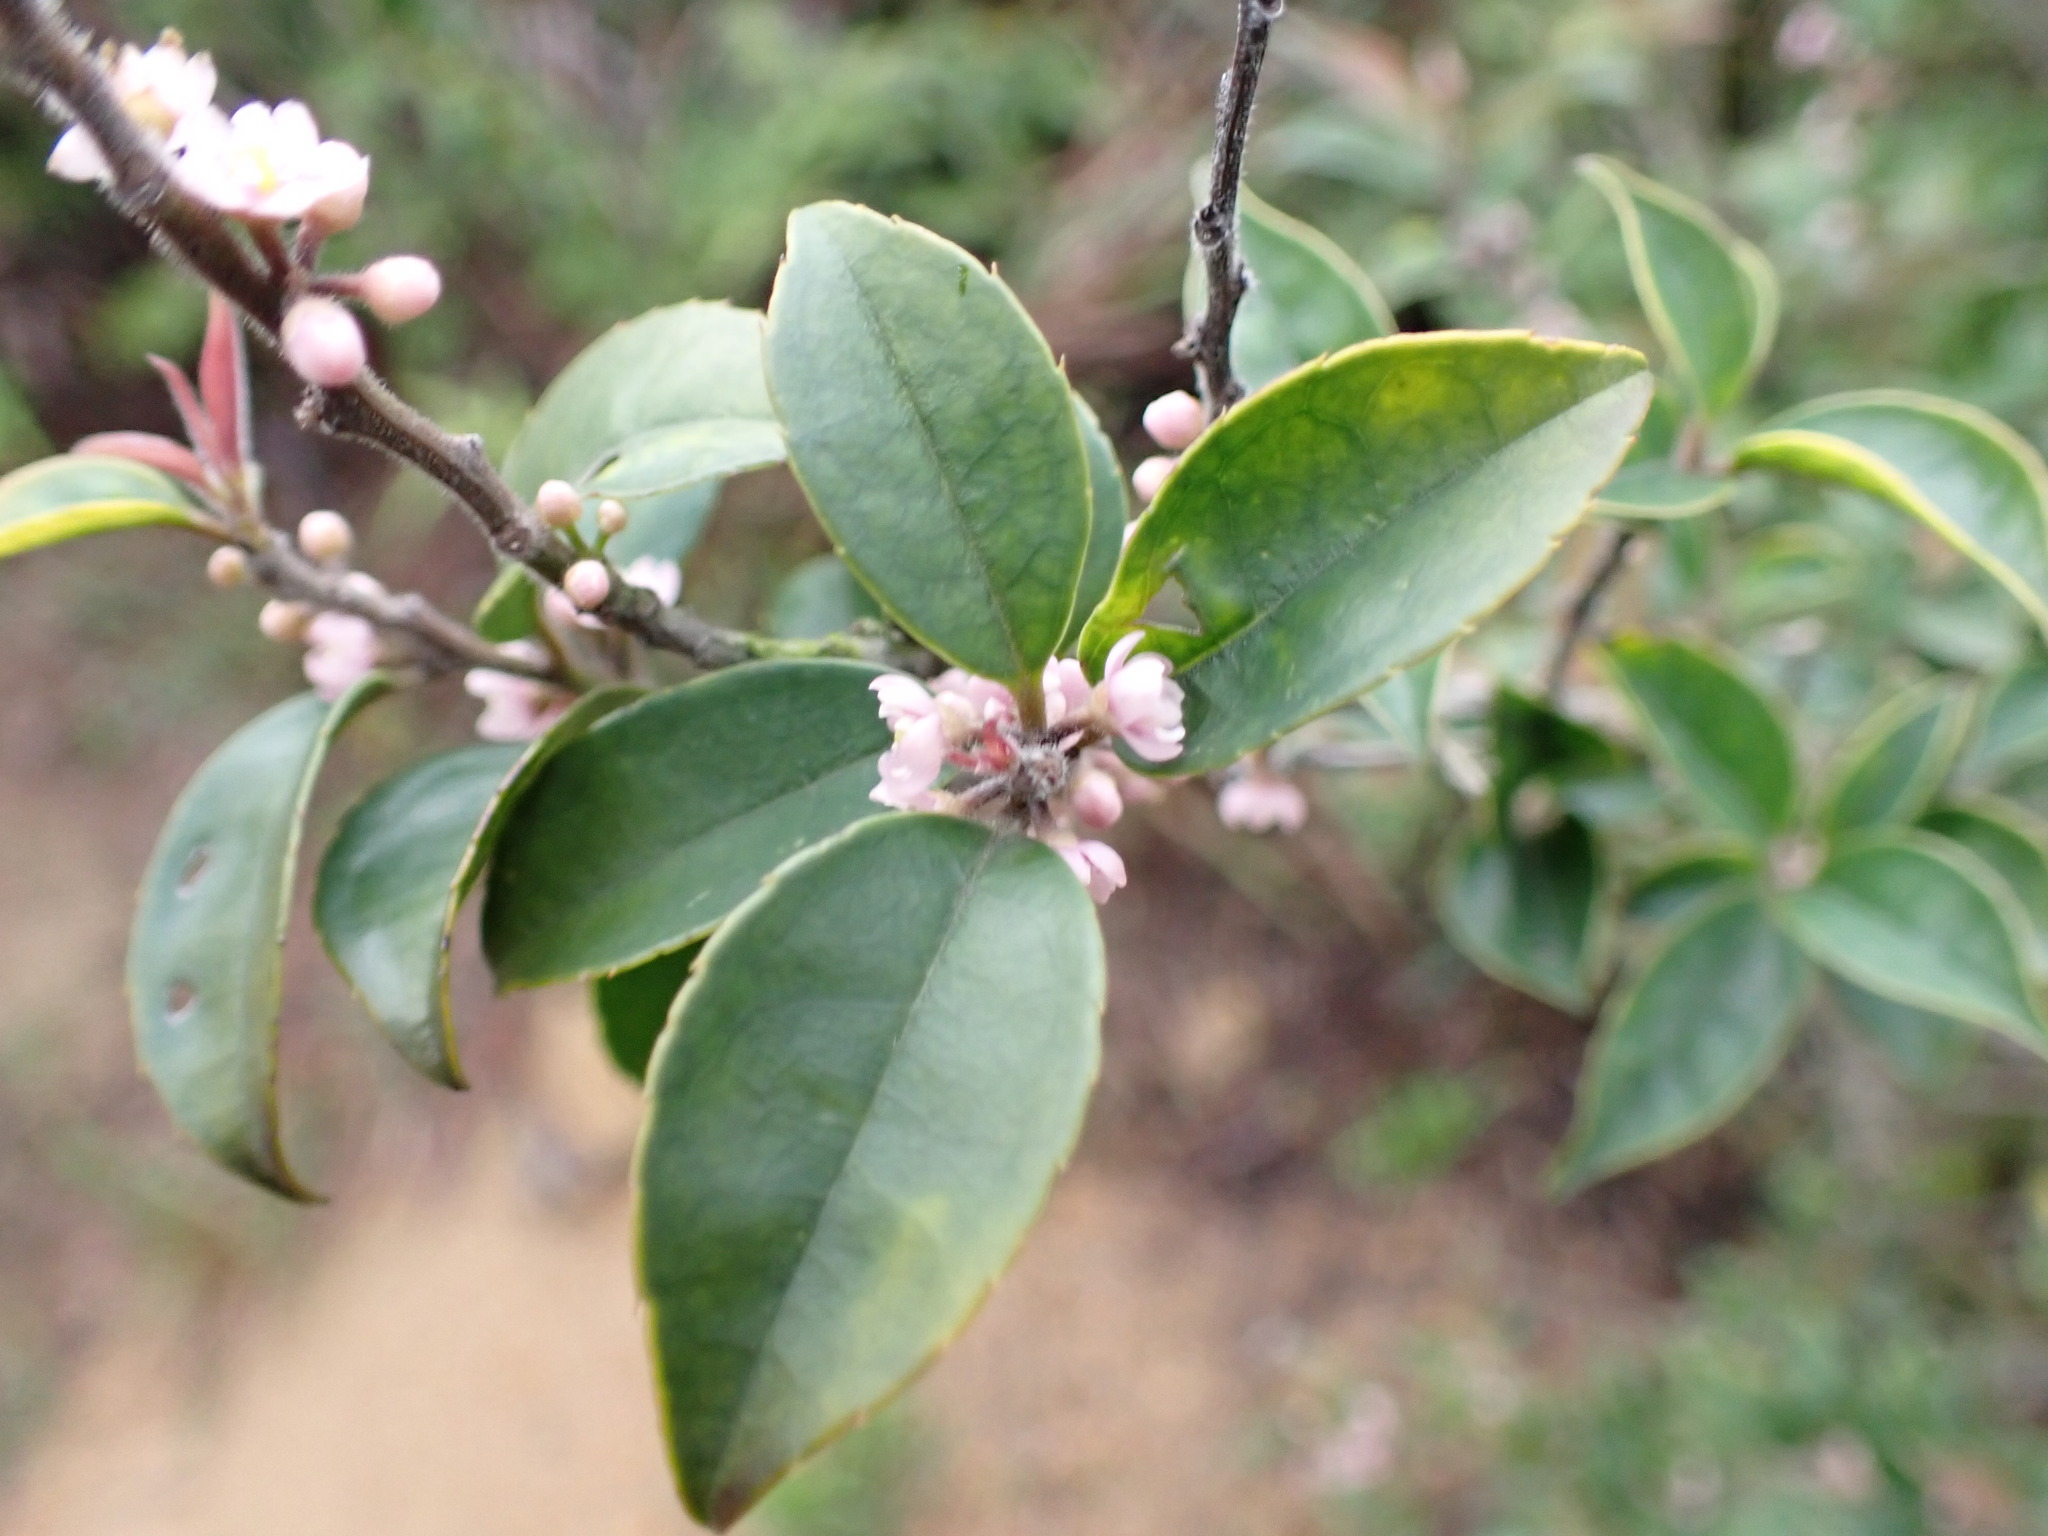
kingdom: Plantae
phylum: Tracheophyta
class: Magnoliopsida
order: Aquifoliales
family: Aquifoliaceae
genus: Ilex
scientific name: Ilex pubescens
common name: Pubescent holly
